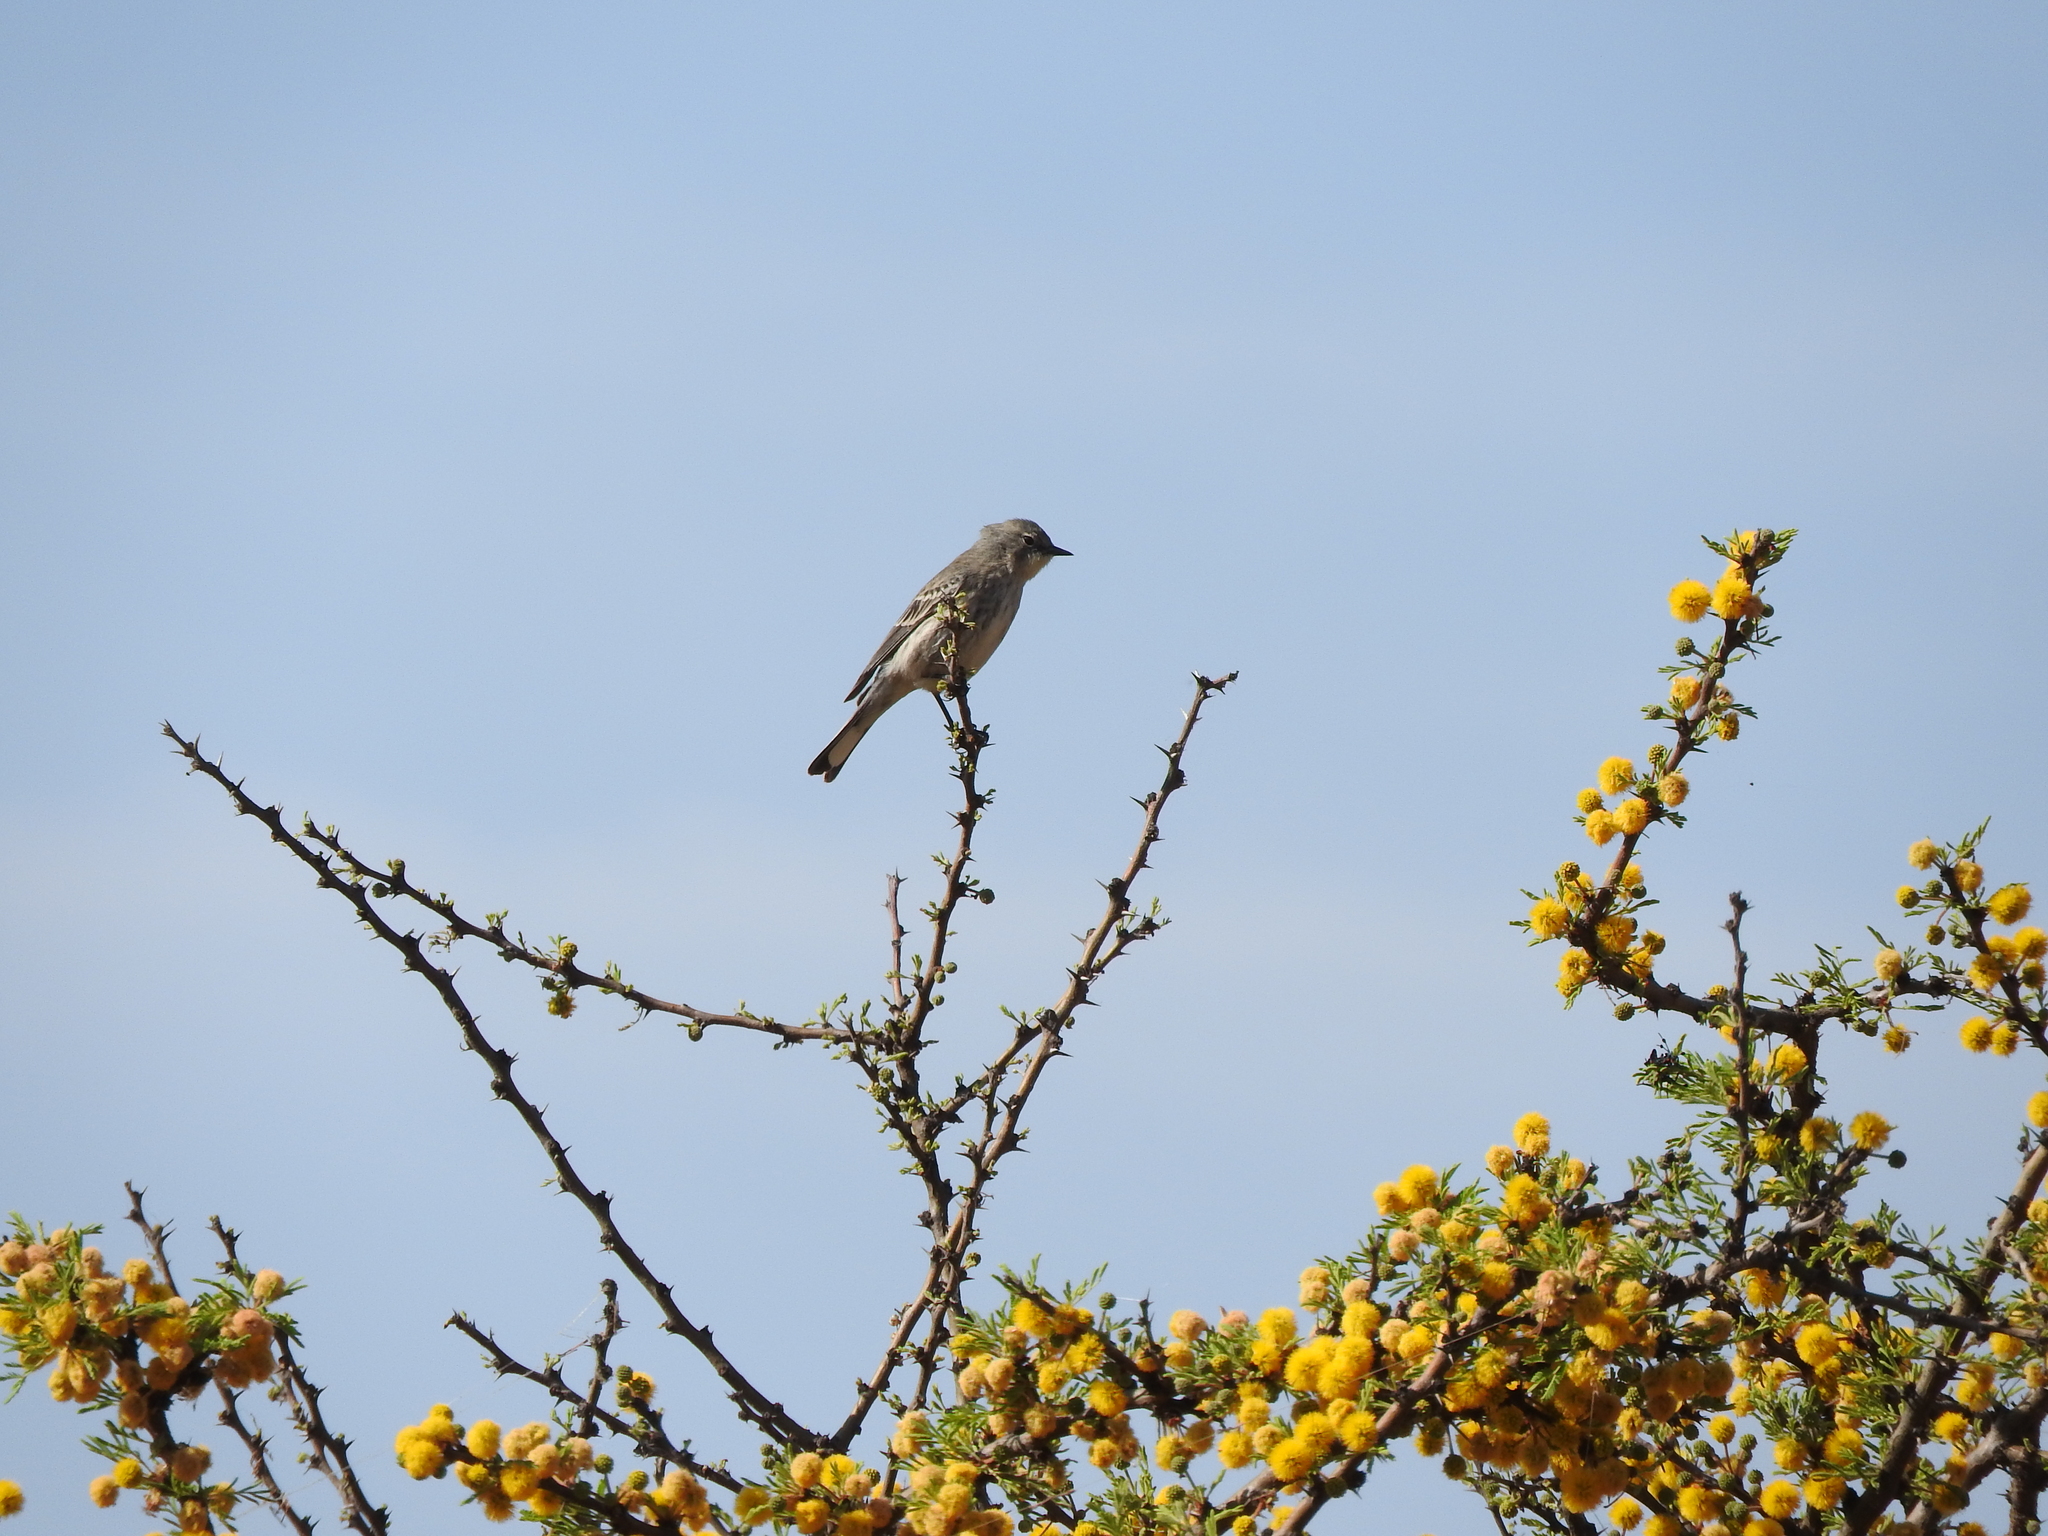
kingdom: Animalia
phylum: Chordata
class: Aves
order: Passeriformes
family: Parulidae
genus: Setophaga
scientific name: Setophaga coronata
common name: Myrtle warbler
